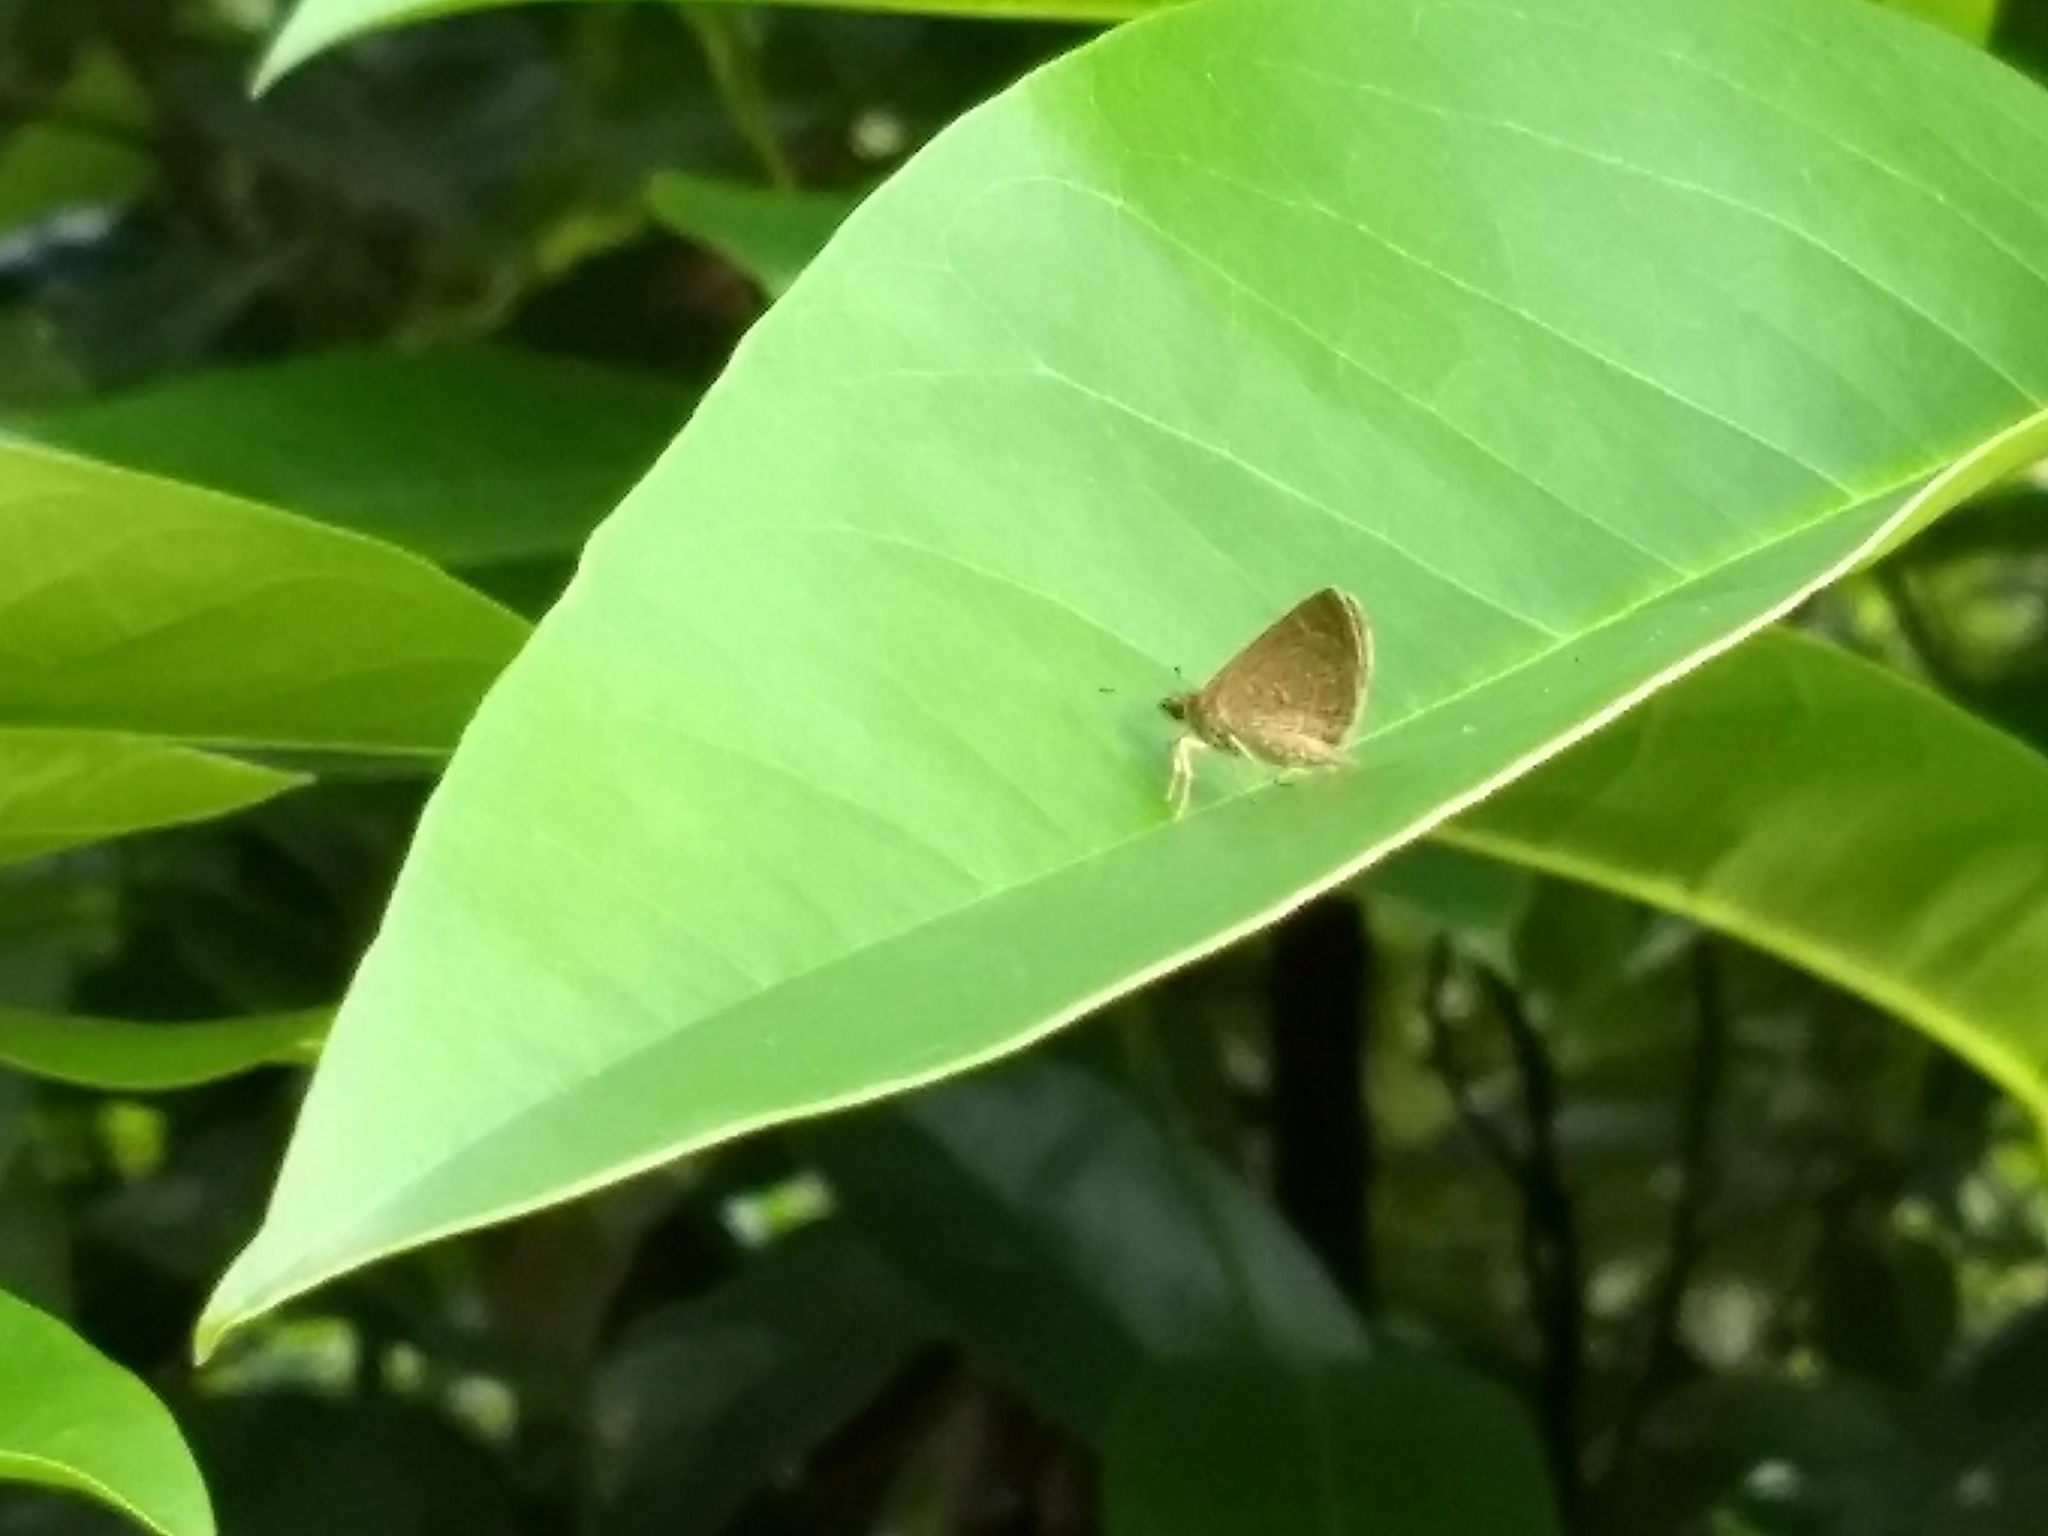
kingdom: Animalia
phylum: Arthropoda
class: Insecta
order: Lepidoptera
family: Hesperiidae
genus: Aeromachus
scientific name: Aeromachus pygmaeus
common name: Pygmy scrub hopper
